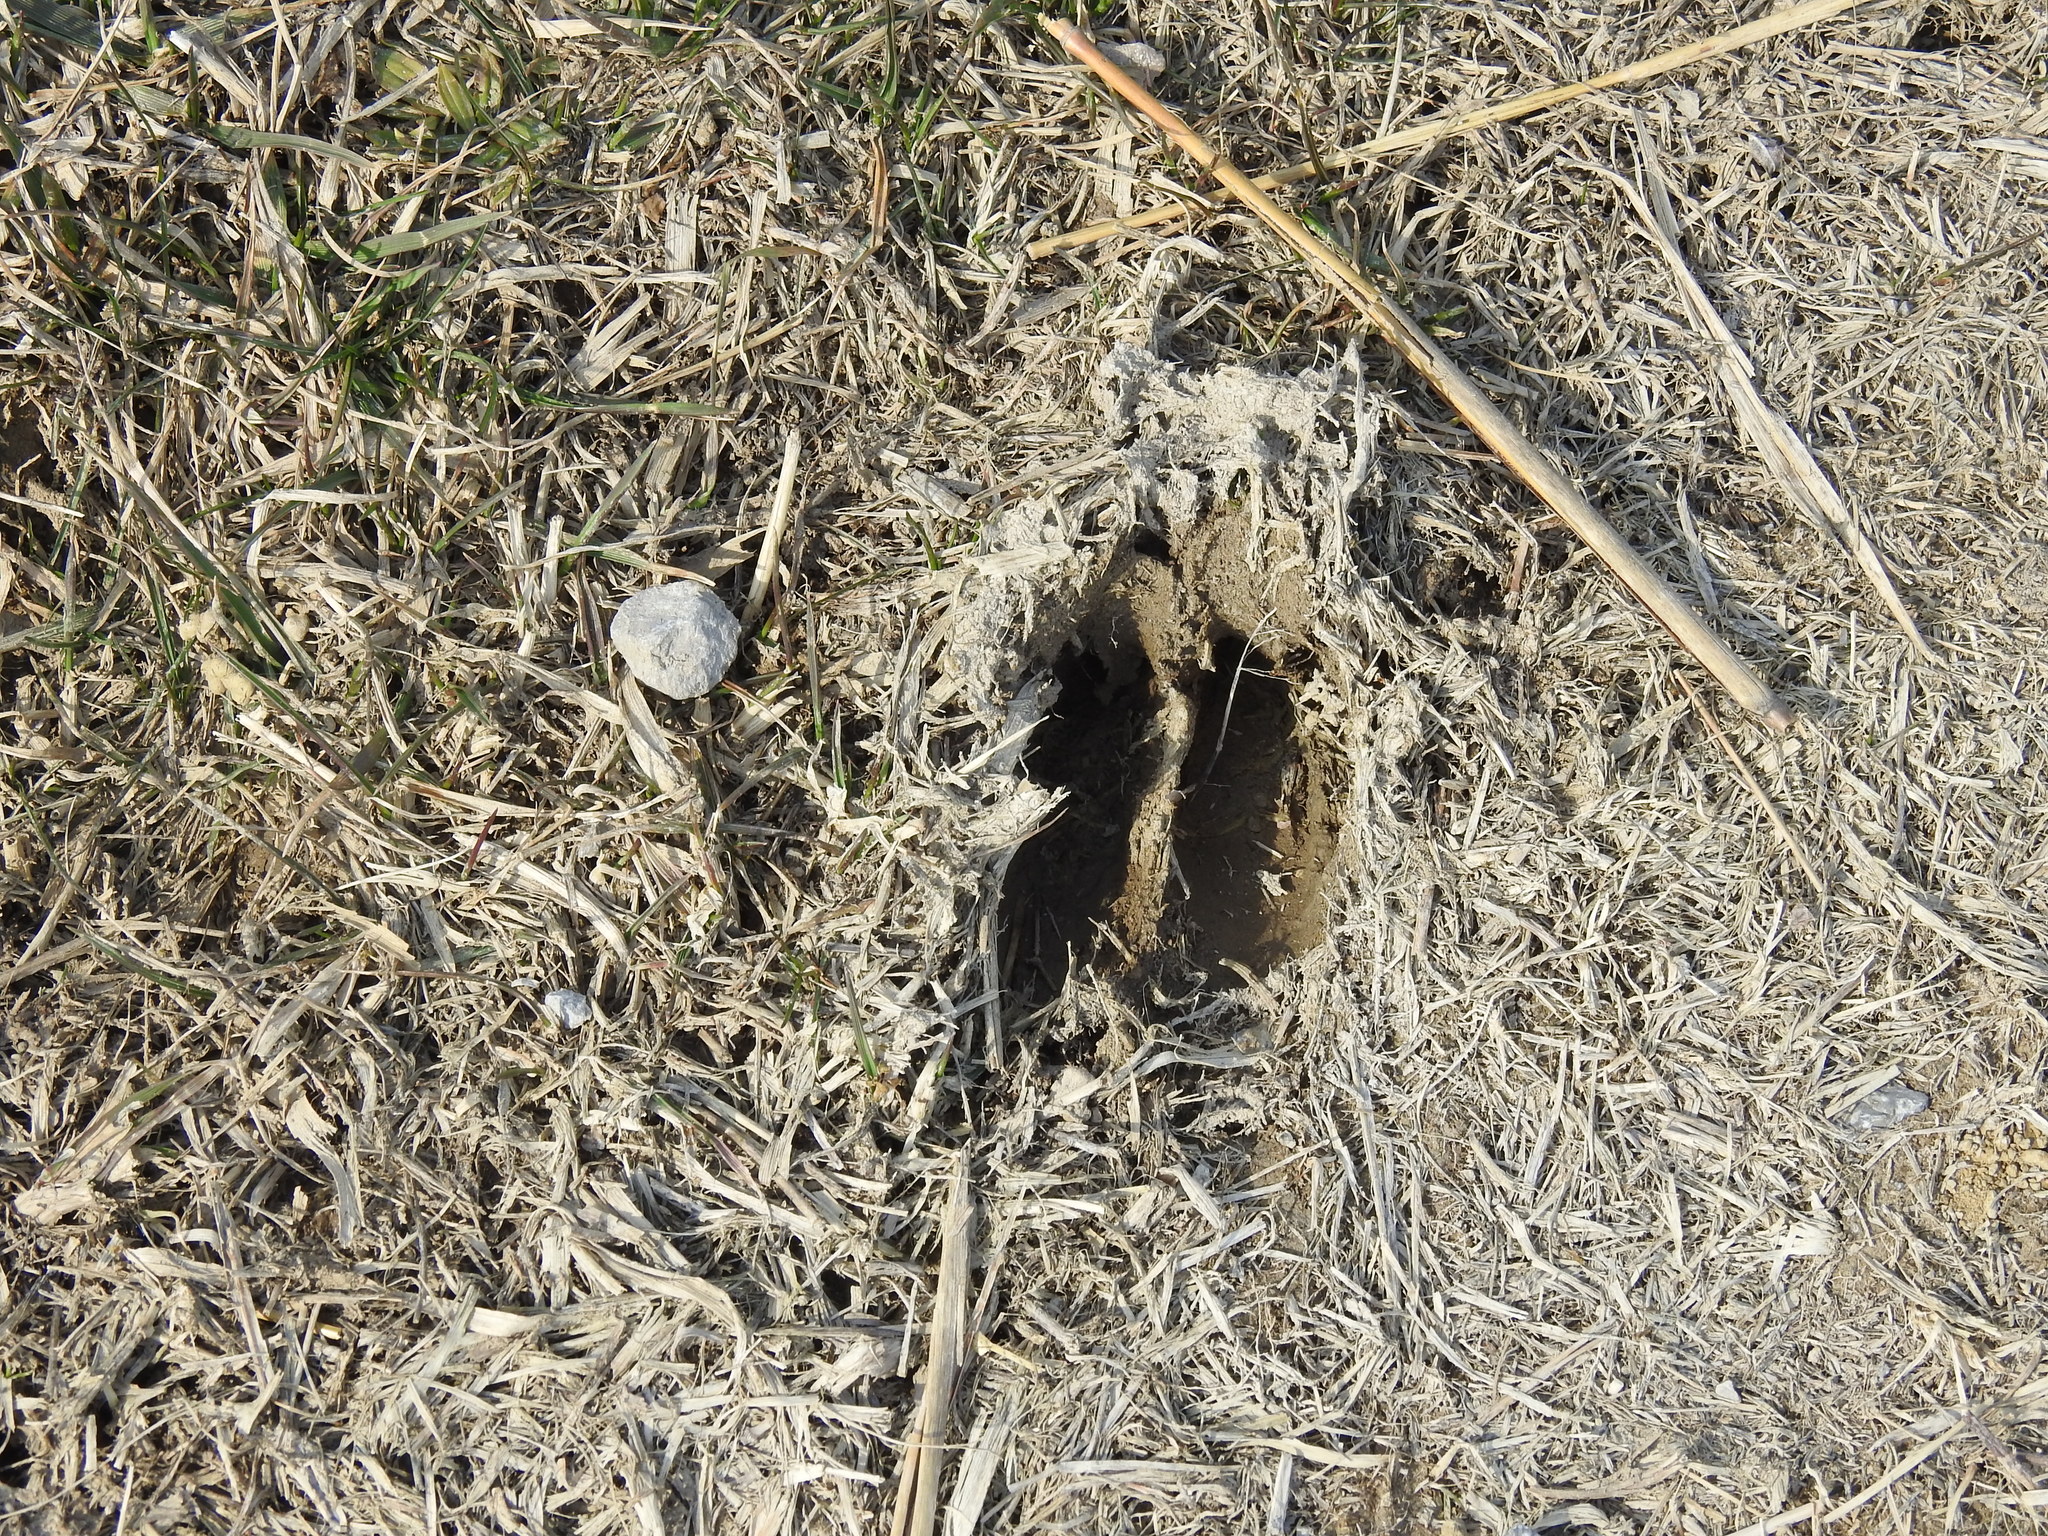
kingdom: Animalia
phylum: Chordata
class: Mammalia
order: Artiodactyla
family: Cervidae
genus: Odocoileus
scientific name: Odocoileus virginianus
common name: White-tailed deer
